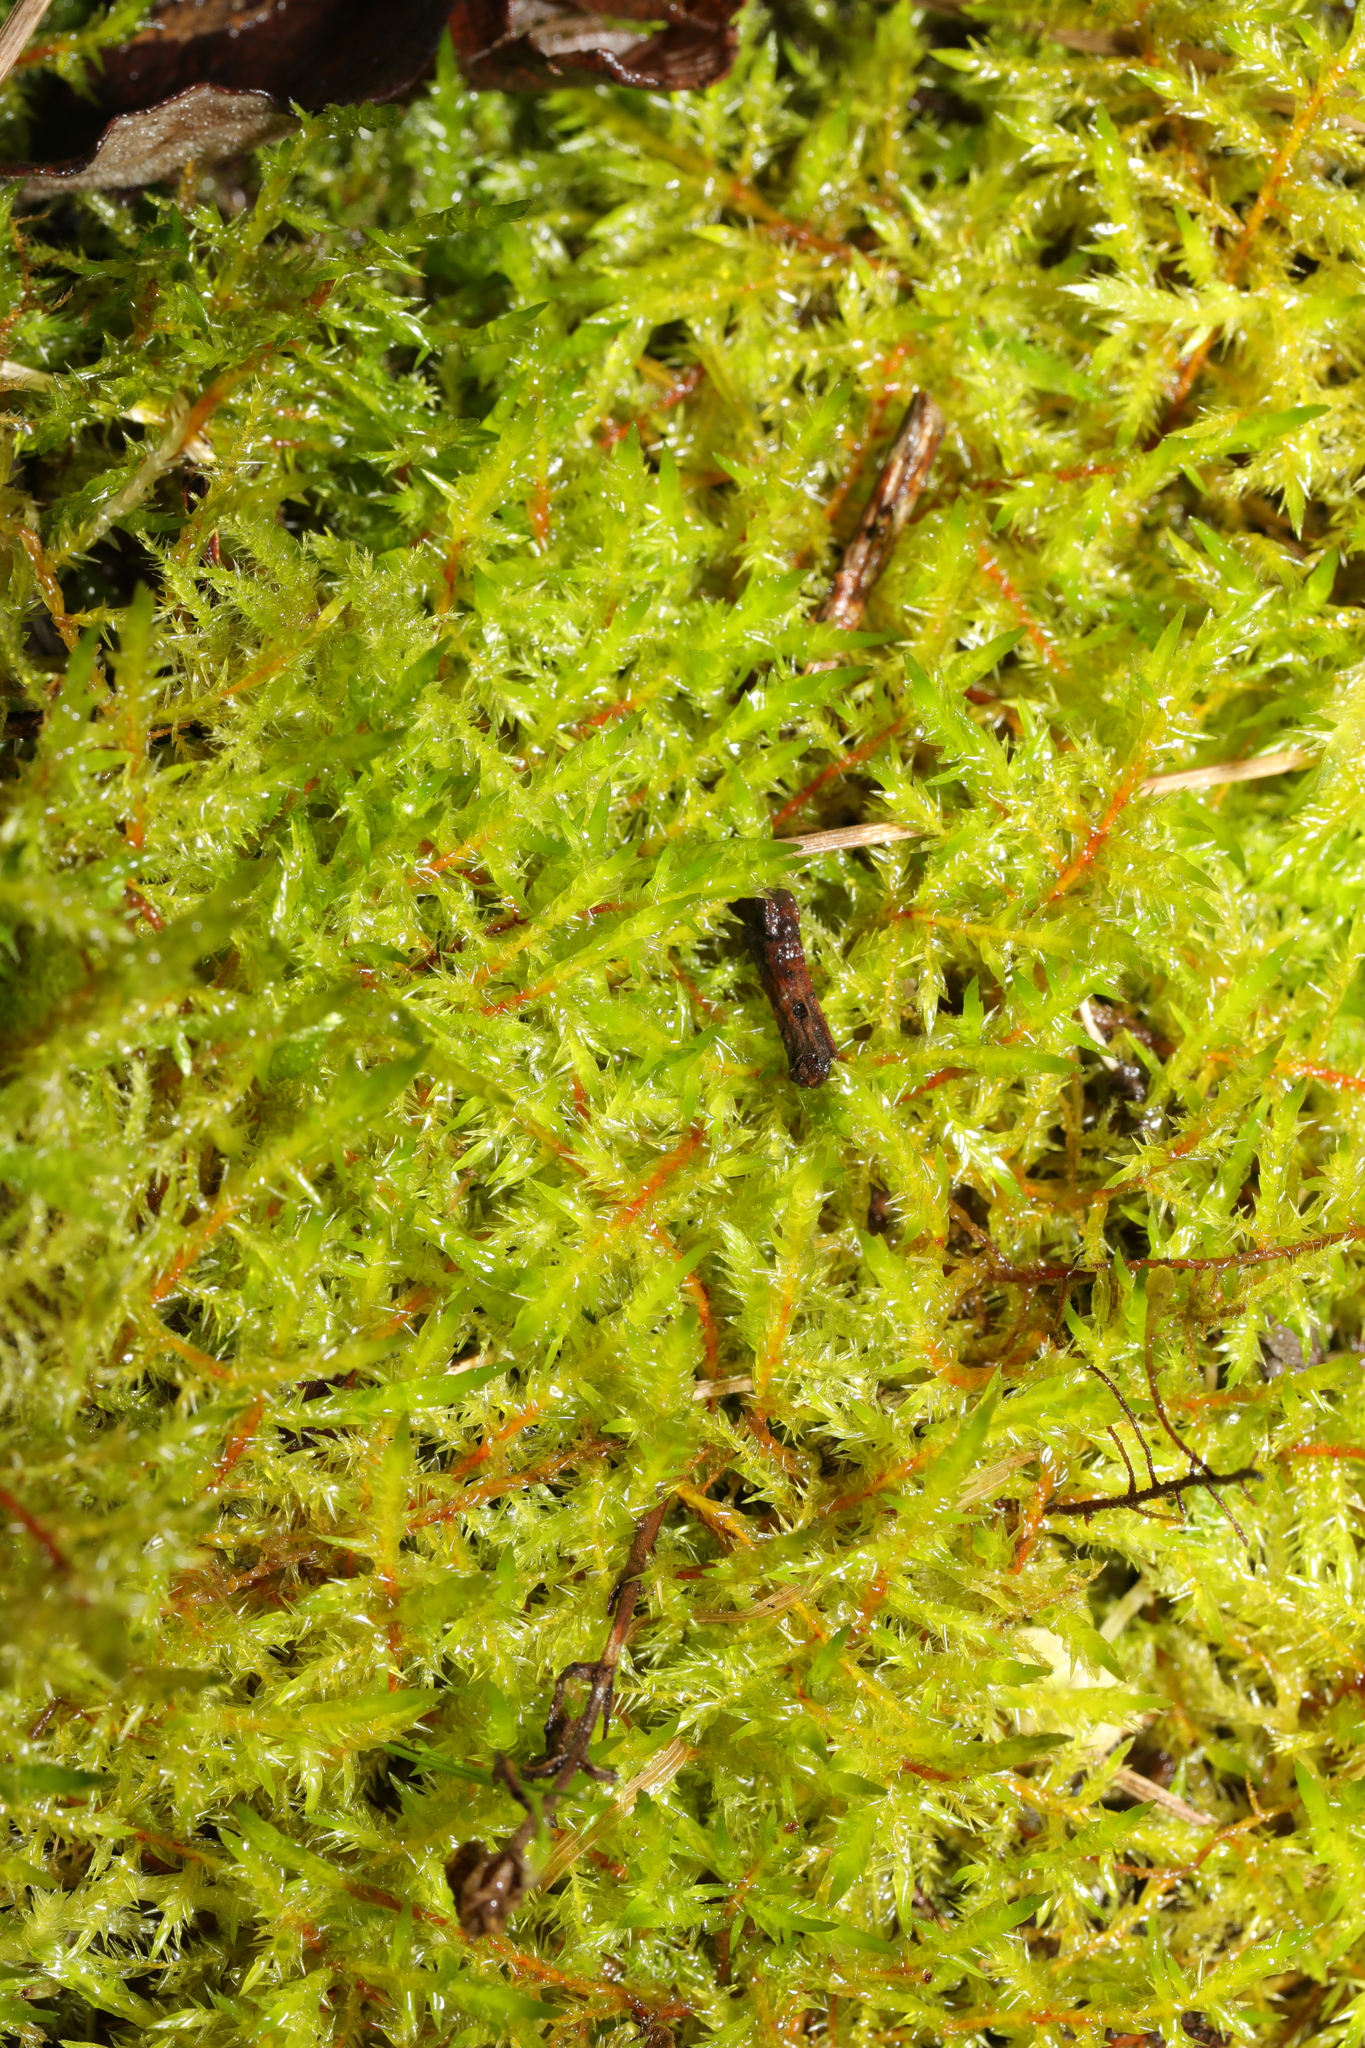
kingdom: Plantae
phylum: Bryophyta
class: Bryopsida
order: Hypnales
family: Pylaisiaceae
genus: Calliergonella
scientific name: Calliergonella cuspidata
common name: Common large wetland moss
